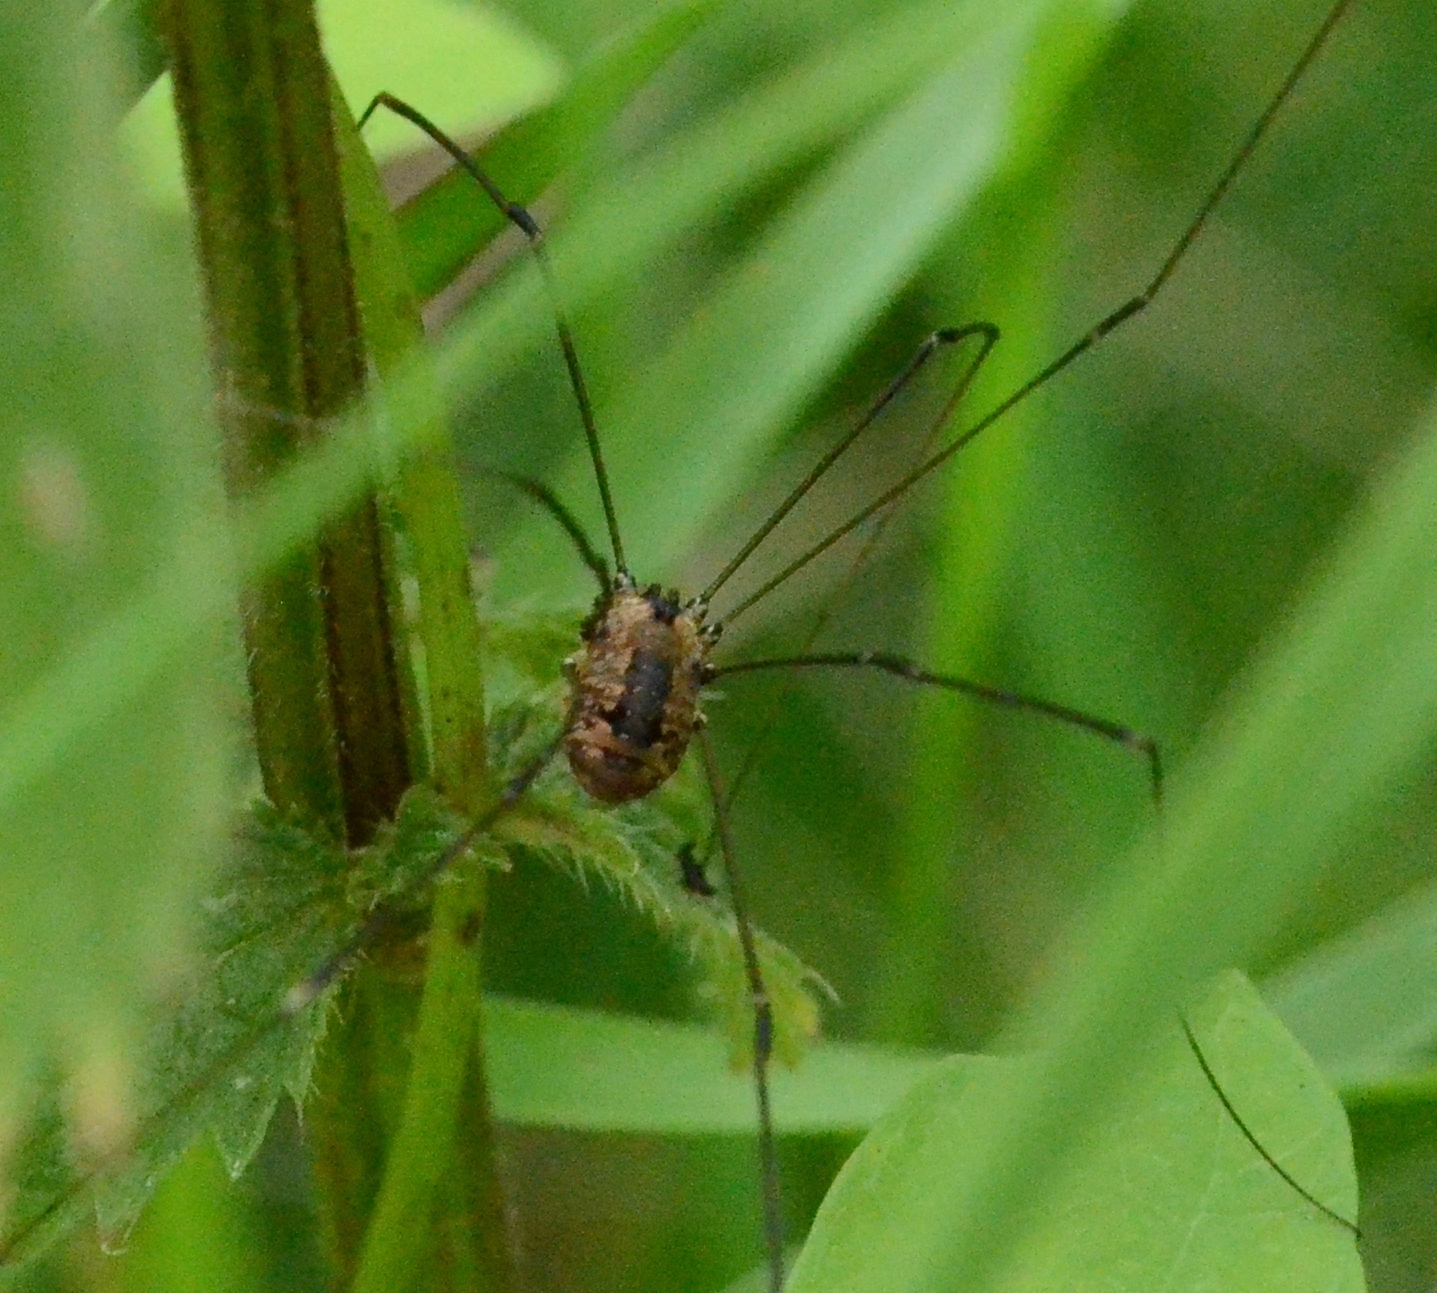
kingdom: Animalia
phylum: Arthropoda
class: Arachnida
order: Opiliones
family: Sclerosomatidae
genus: Leiobunum
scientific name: Leiobunum rotundum
